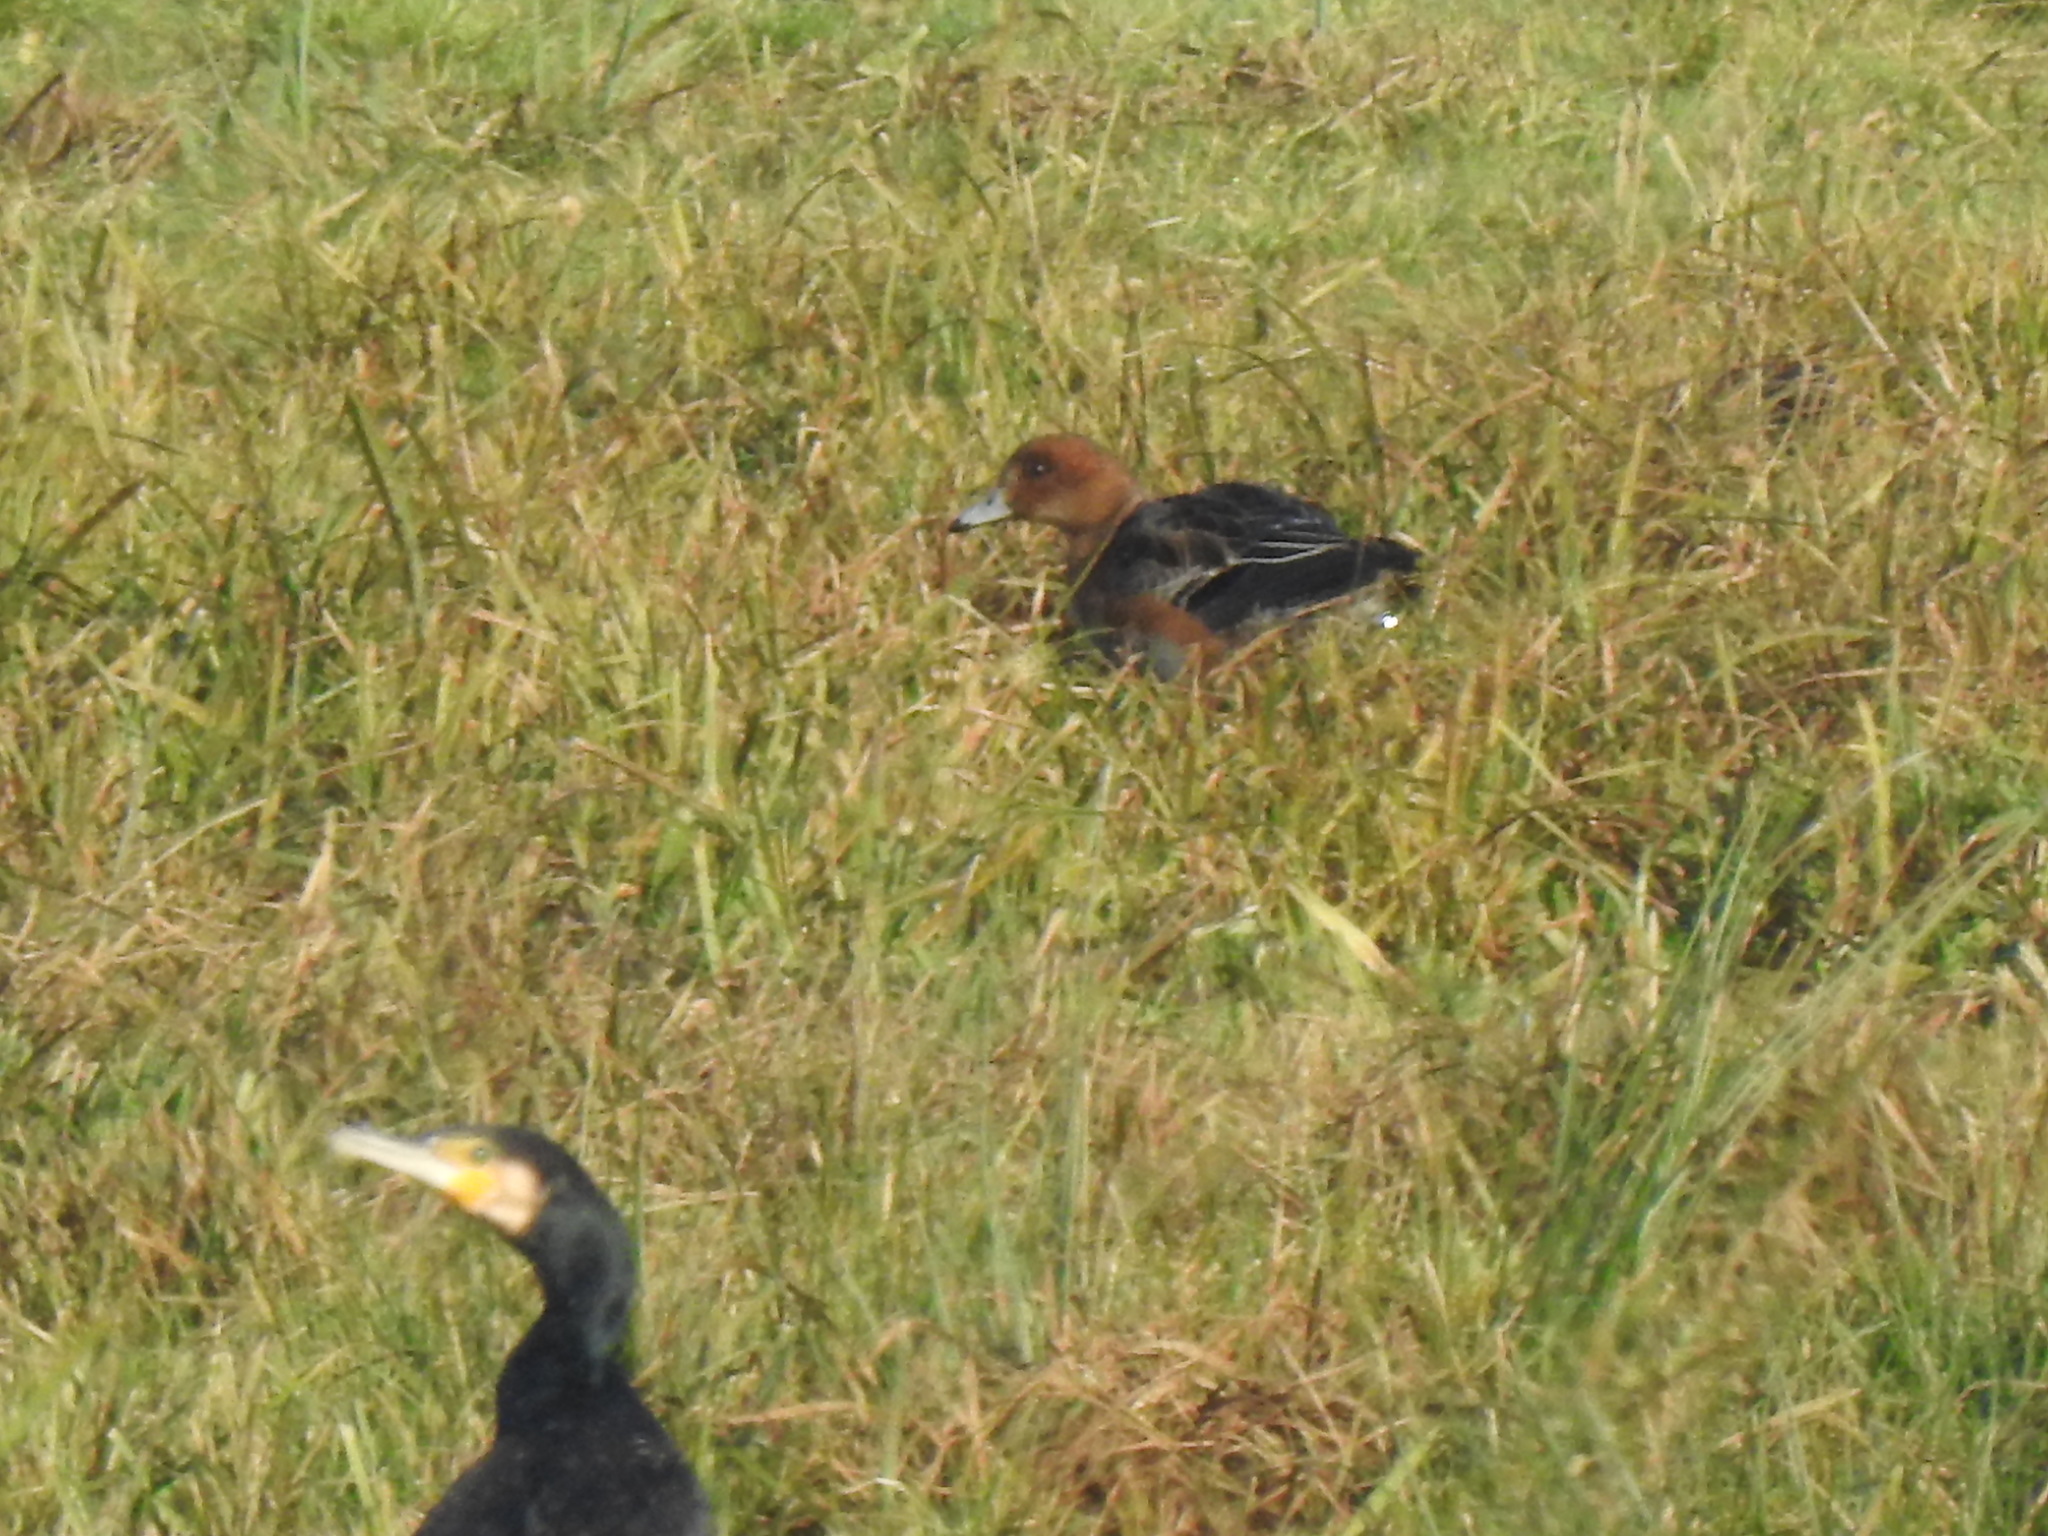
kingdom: Animalia
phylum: Chordata
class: Aves
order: Anseriformes
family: Anatidae
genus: Mareca
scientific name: Mareca penelope
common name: Eurasian wigeon
